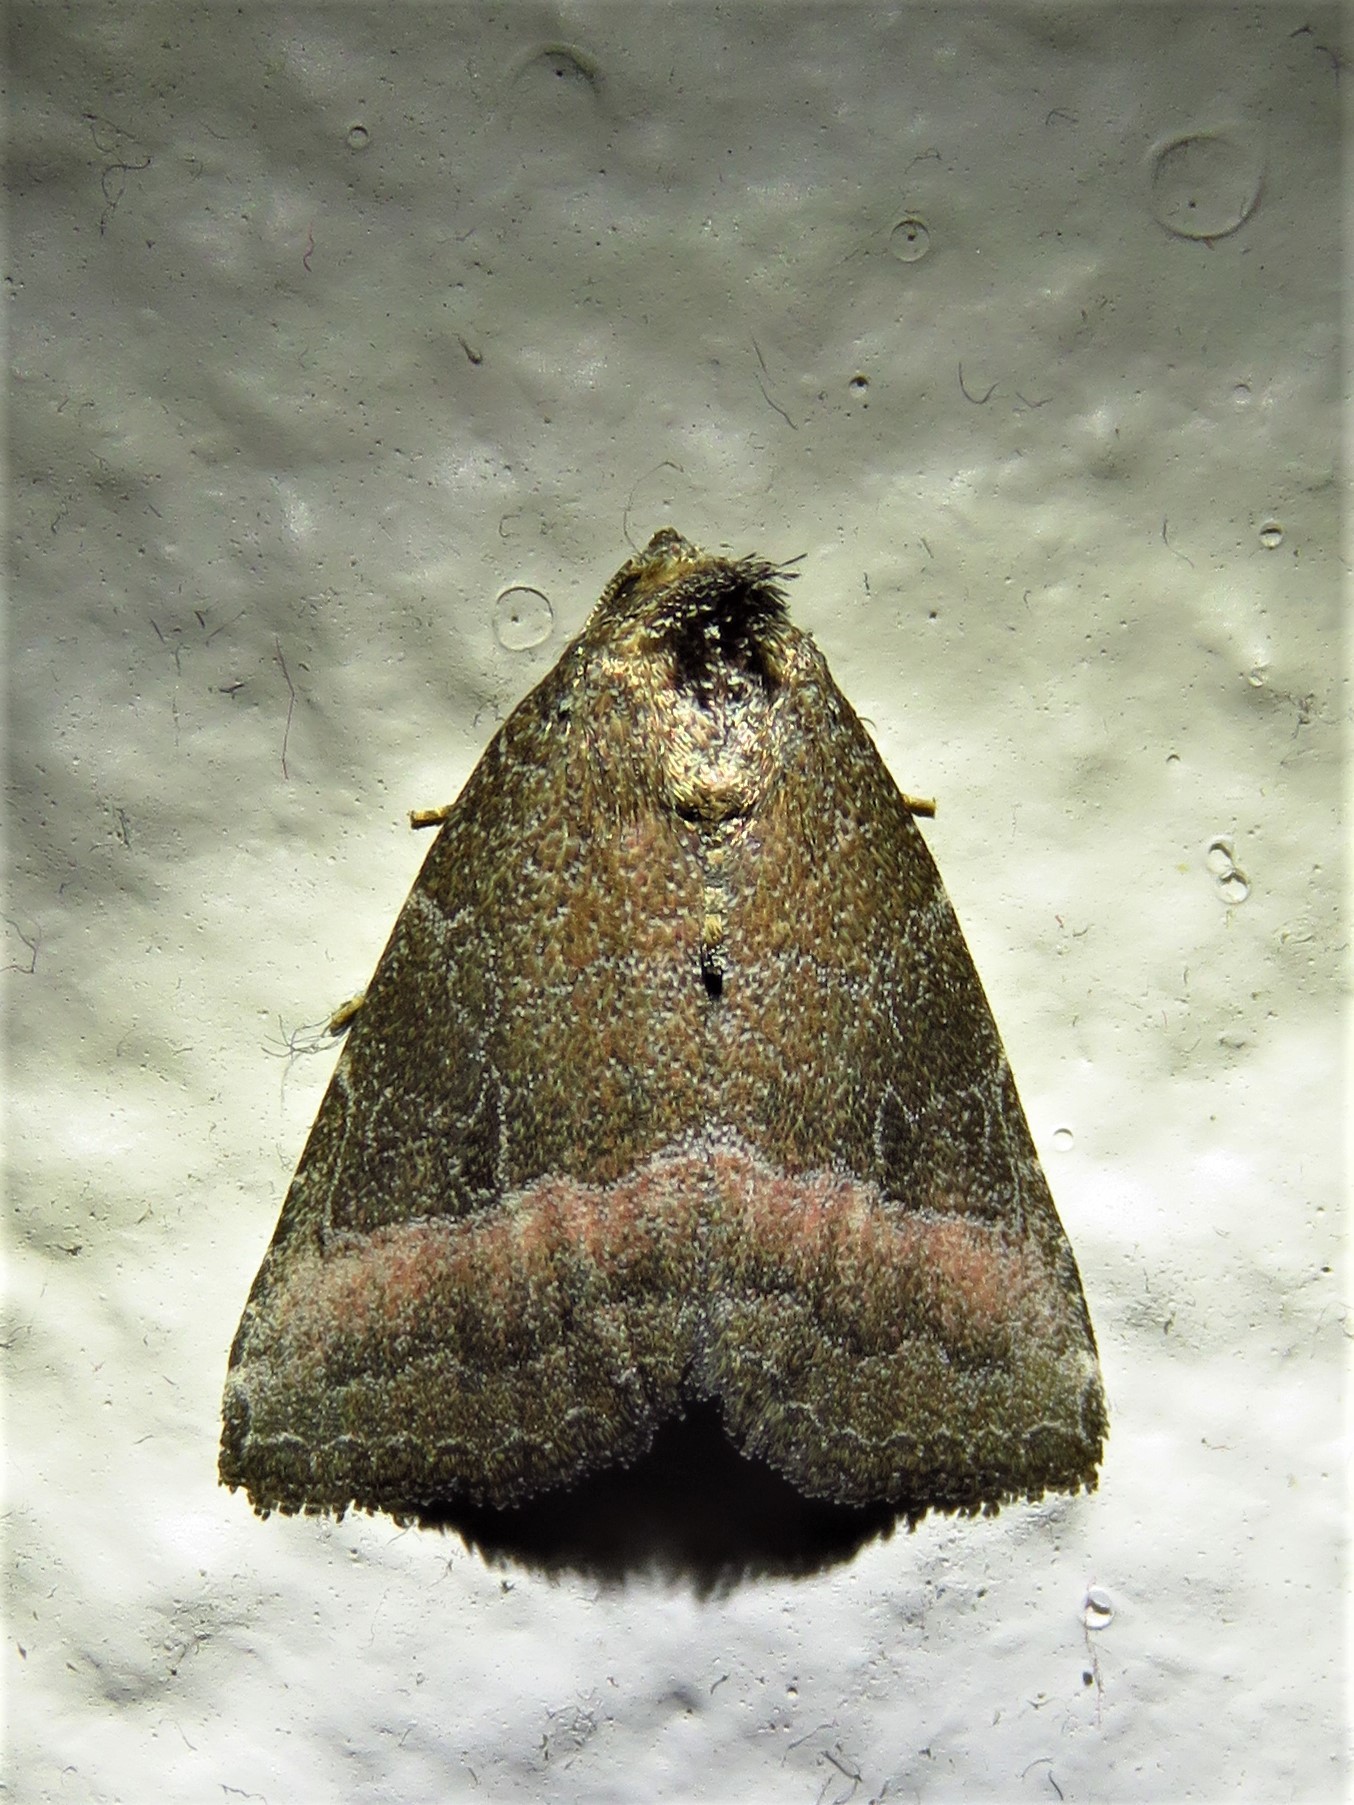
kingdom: Animalia
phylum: Arthropoda
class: Insecta
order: Lepidoptera
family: Noctuidae
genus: Ogdoconta
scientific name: Ogdoconta cinereola
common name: Common pinkband
